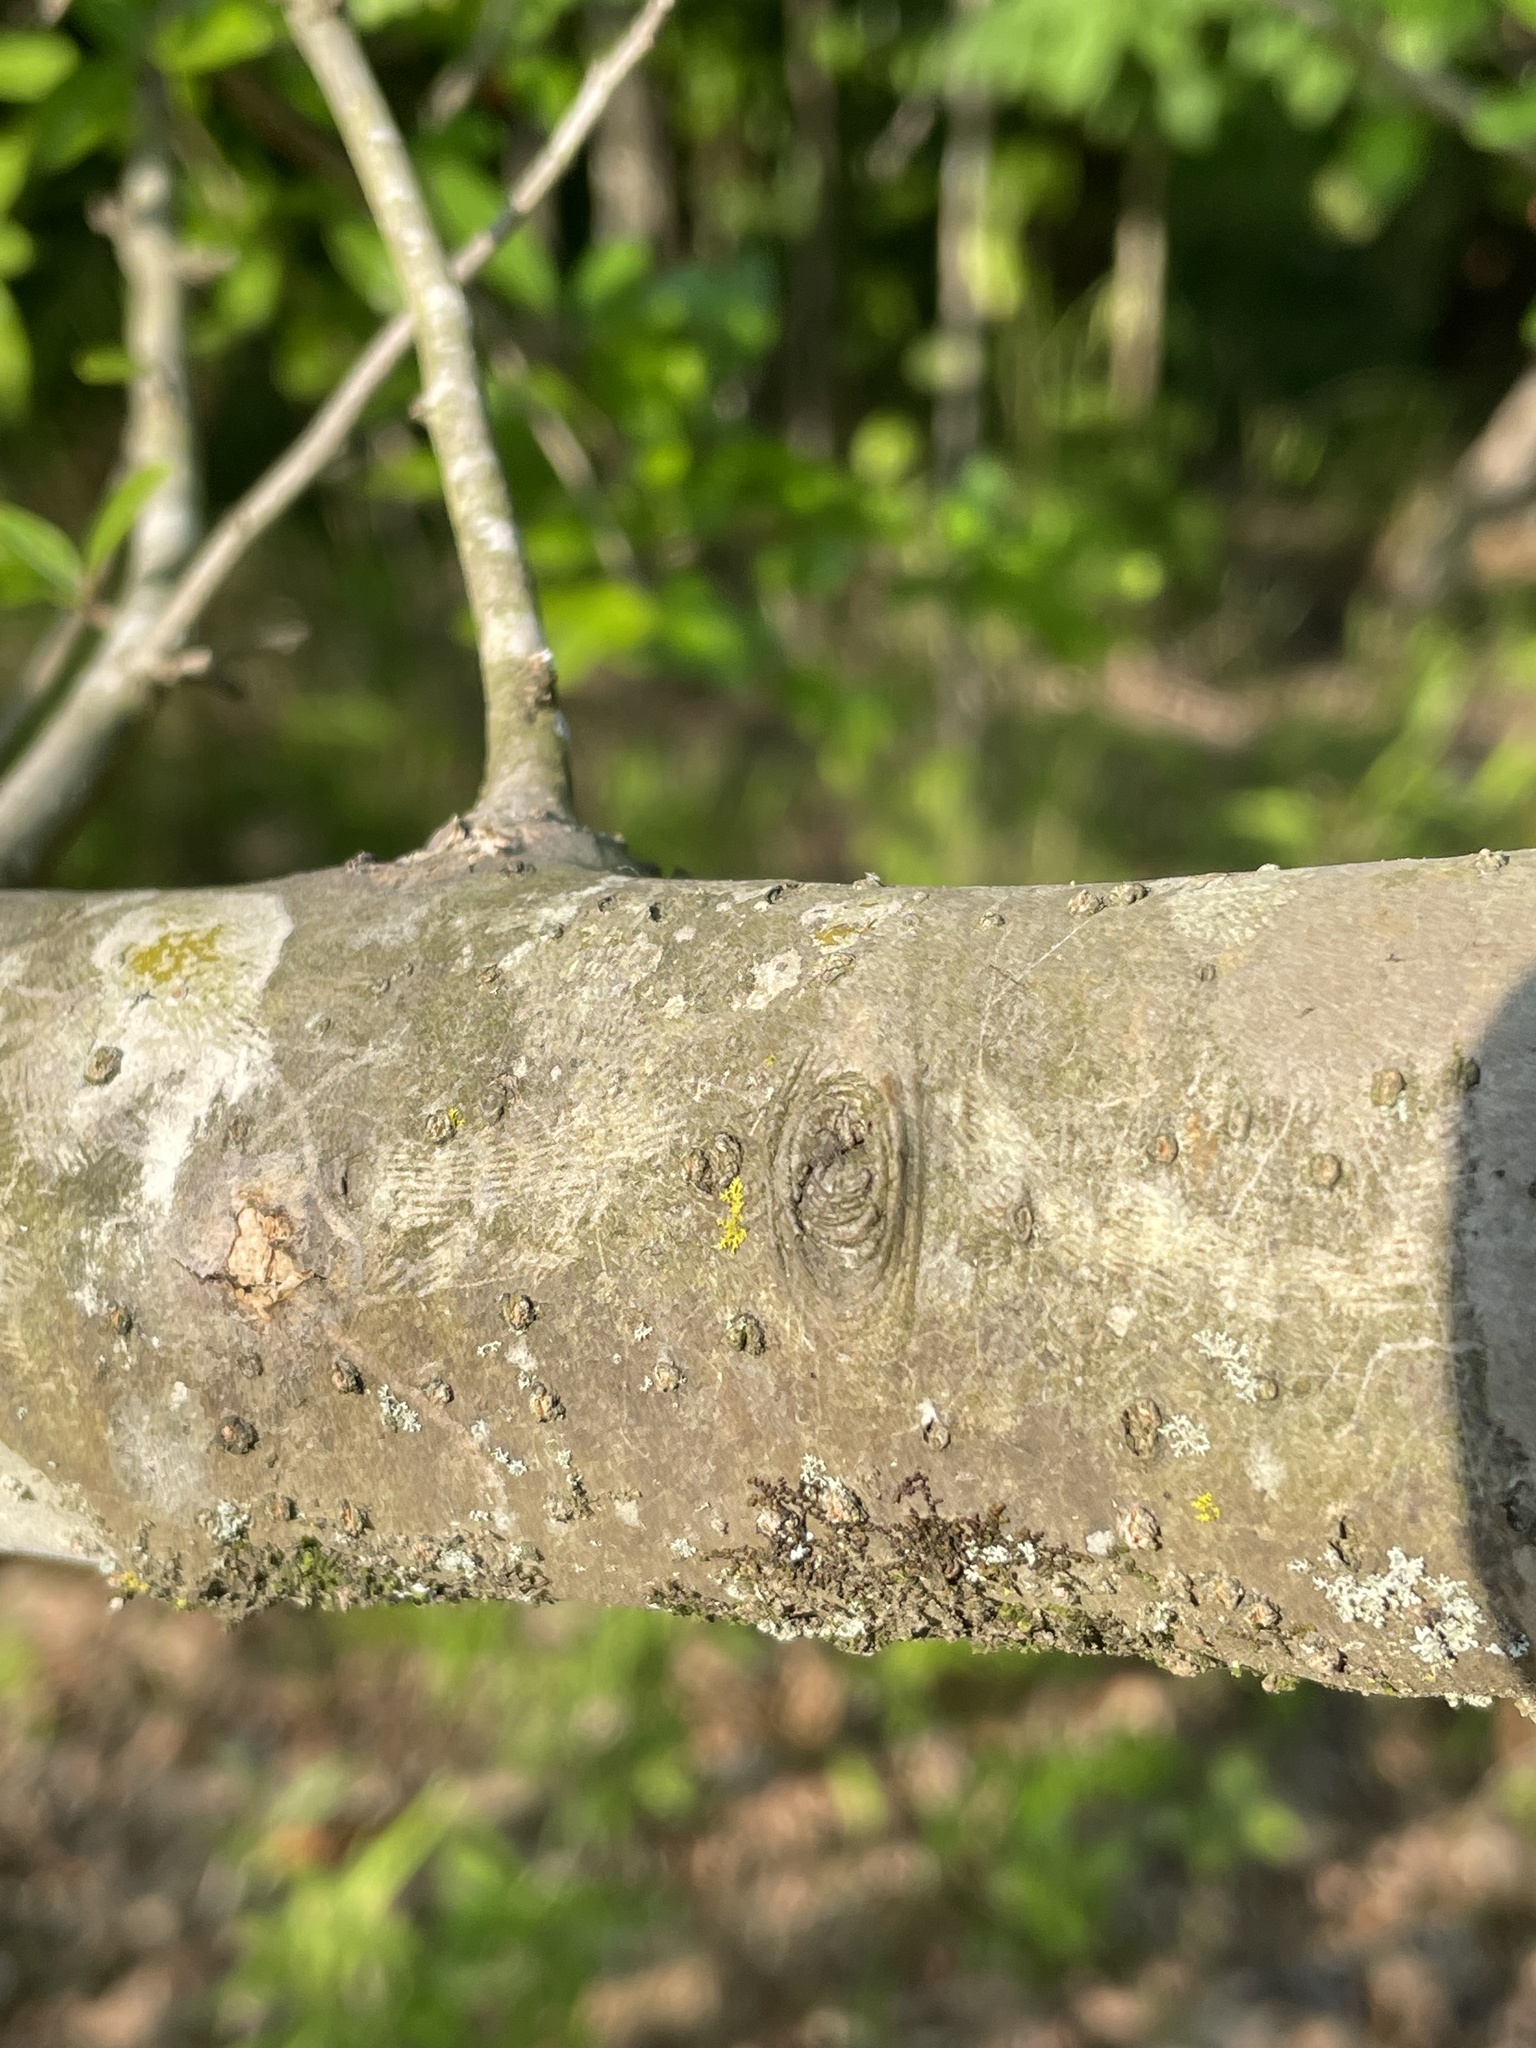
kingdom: Plantae
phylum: Tracheophyta
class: Magnoliopsida
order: Aquifoliales
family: Aquifoliaceae
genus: Ilex
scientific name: Ilex decidua
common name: Possum-haw
